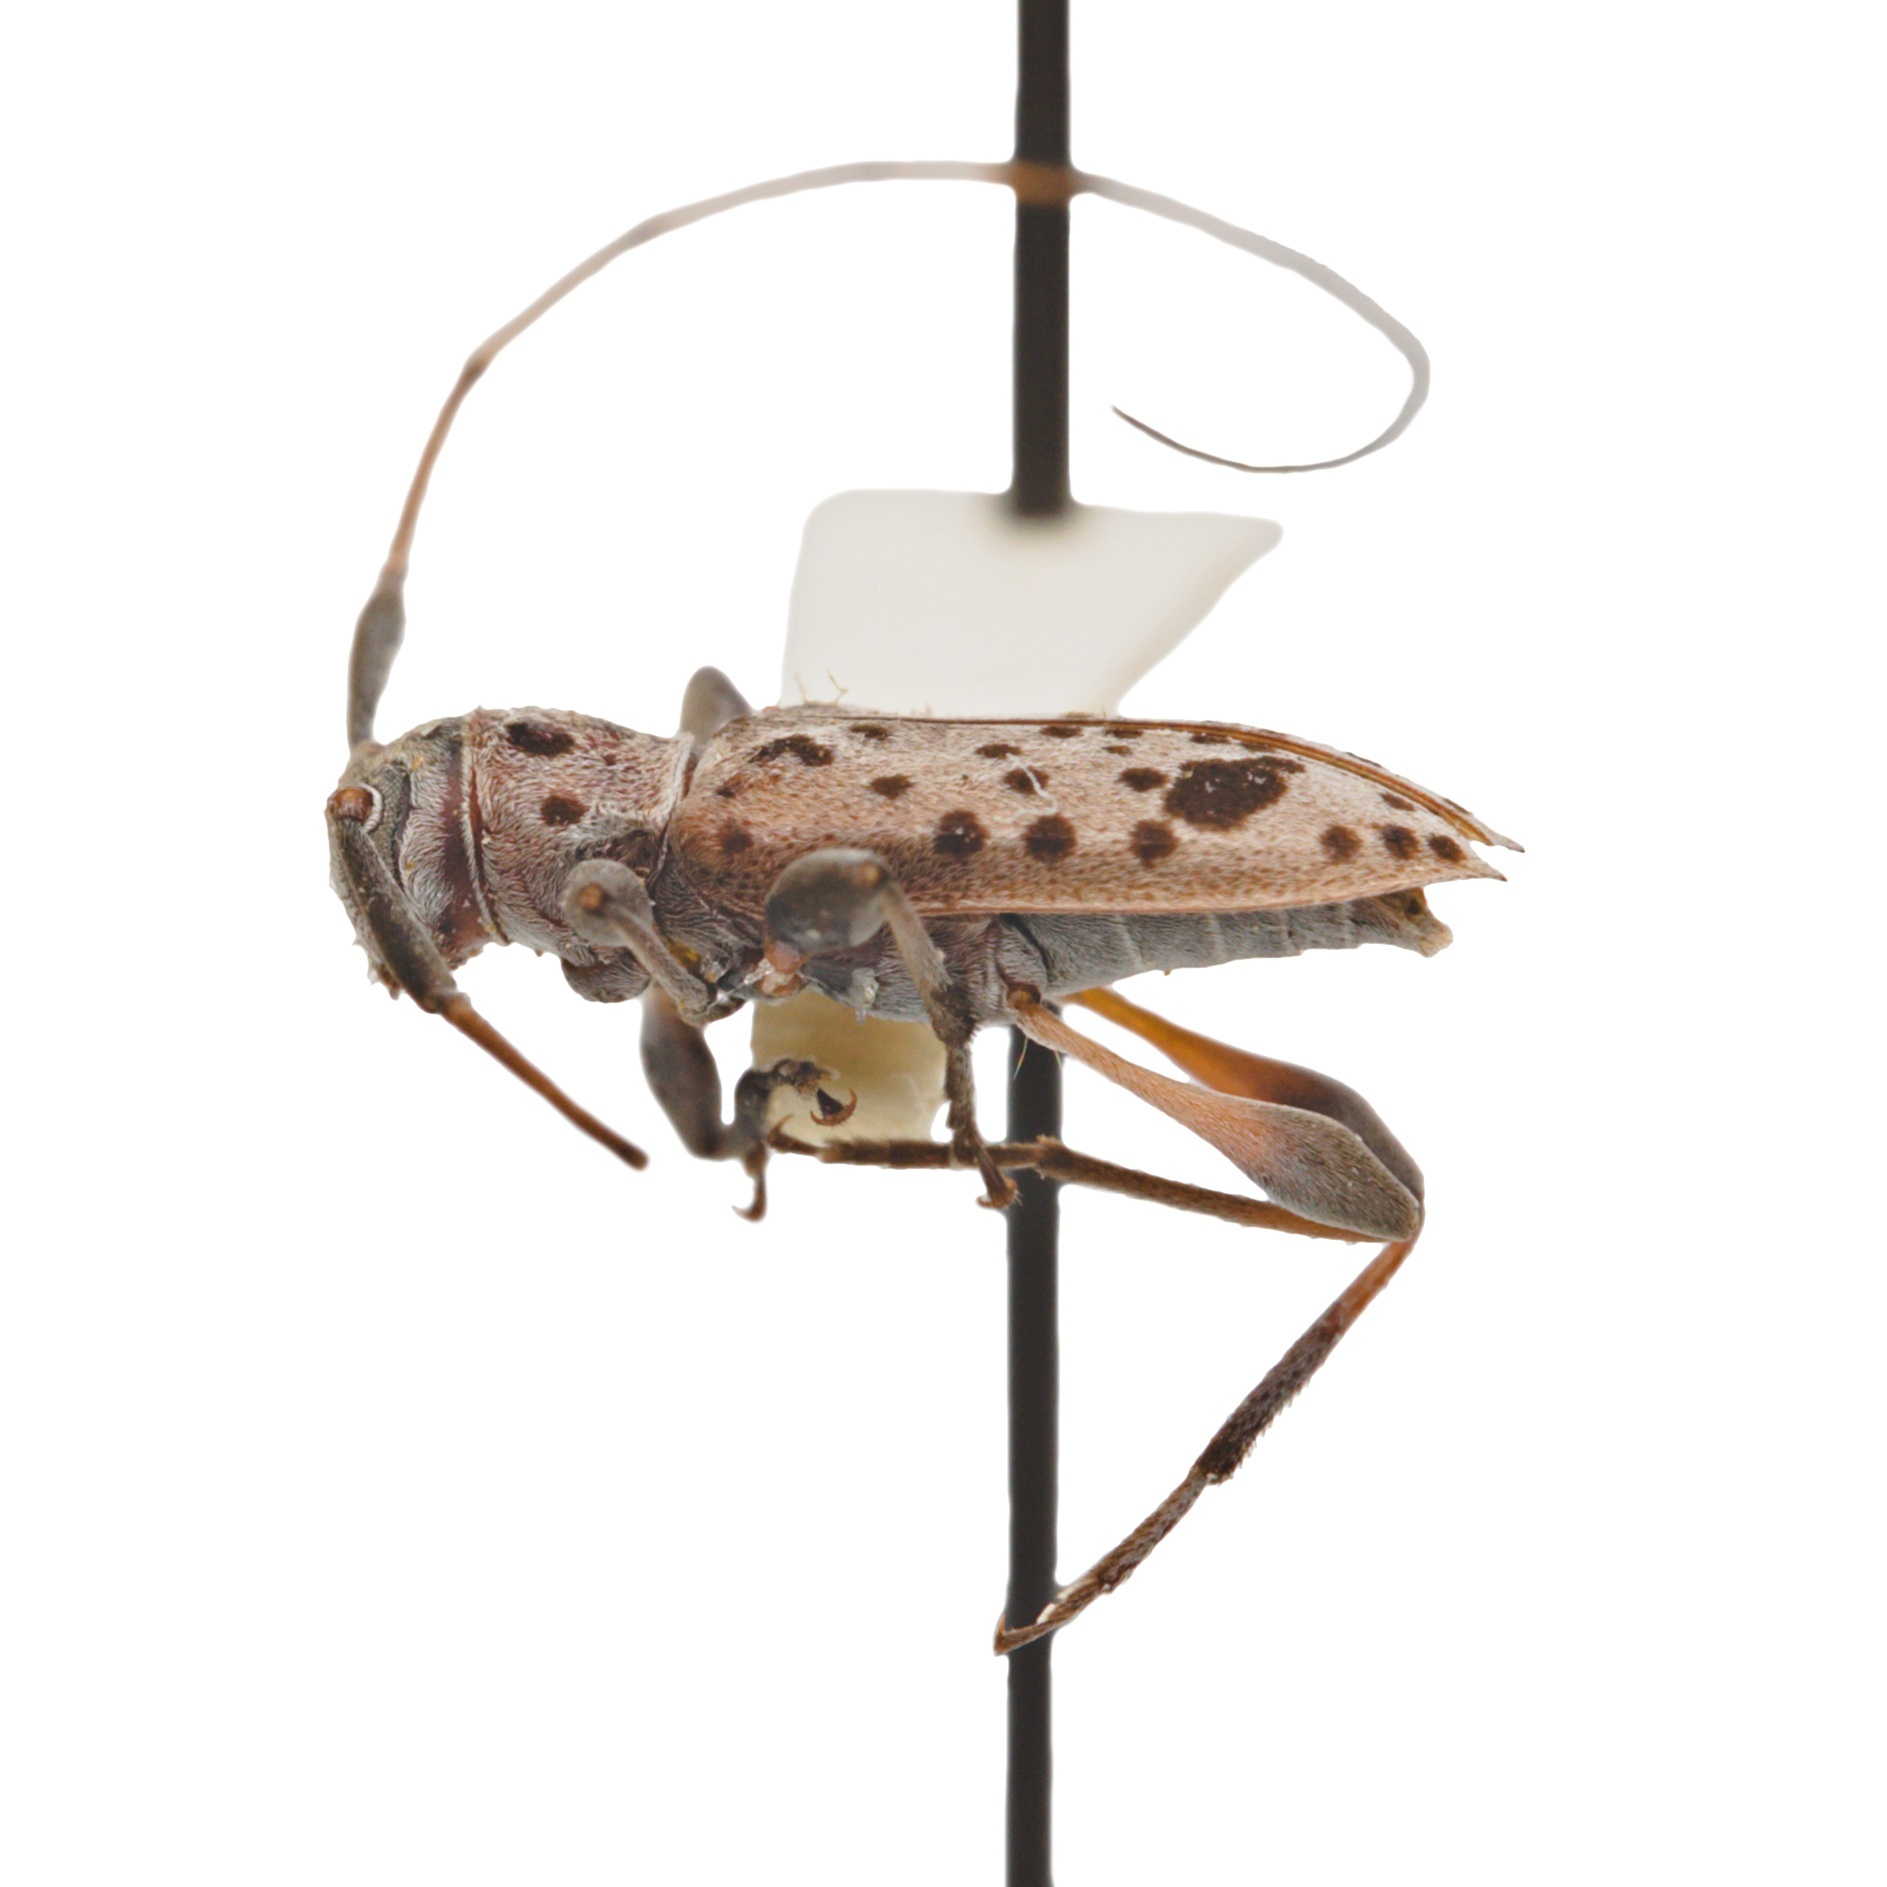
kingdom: Animalia
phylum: Arthropoda
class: Insecta
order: Coleoptera
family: Cerambycidae
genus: Hyperplatys
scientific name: Hyperplatys montana
